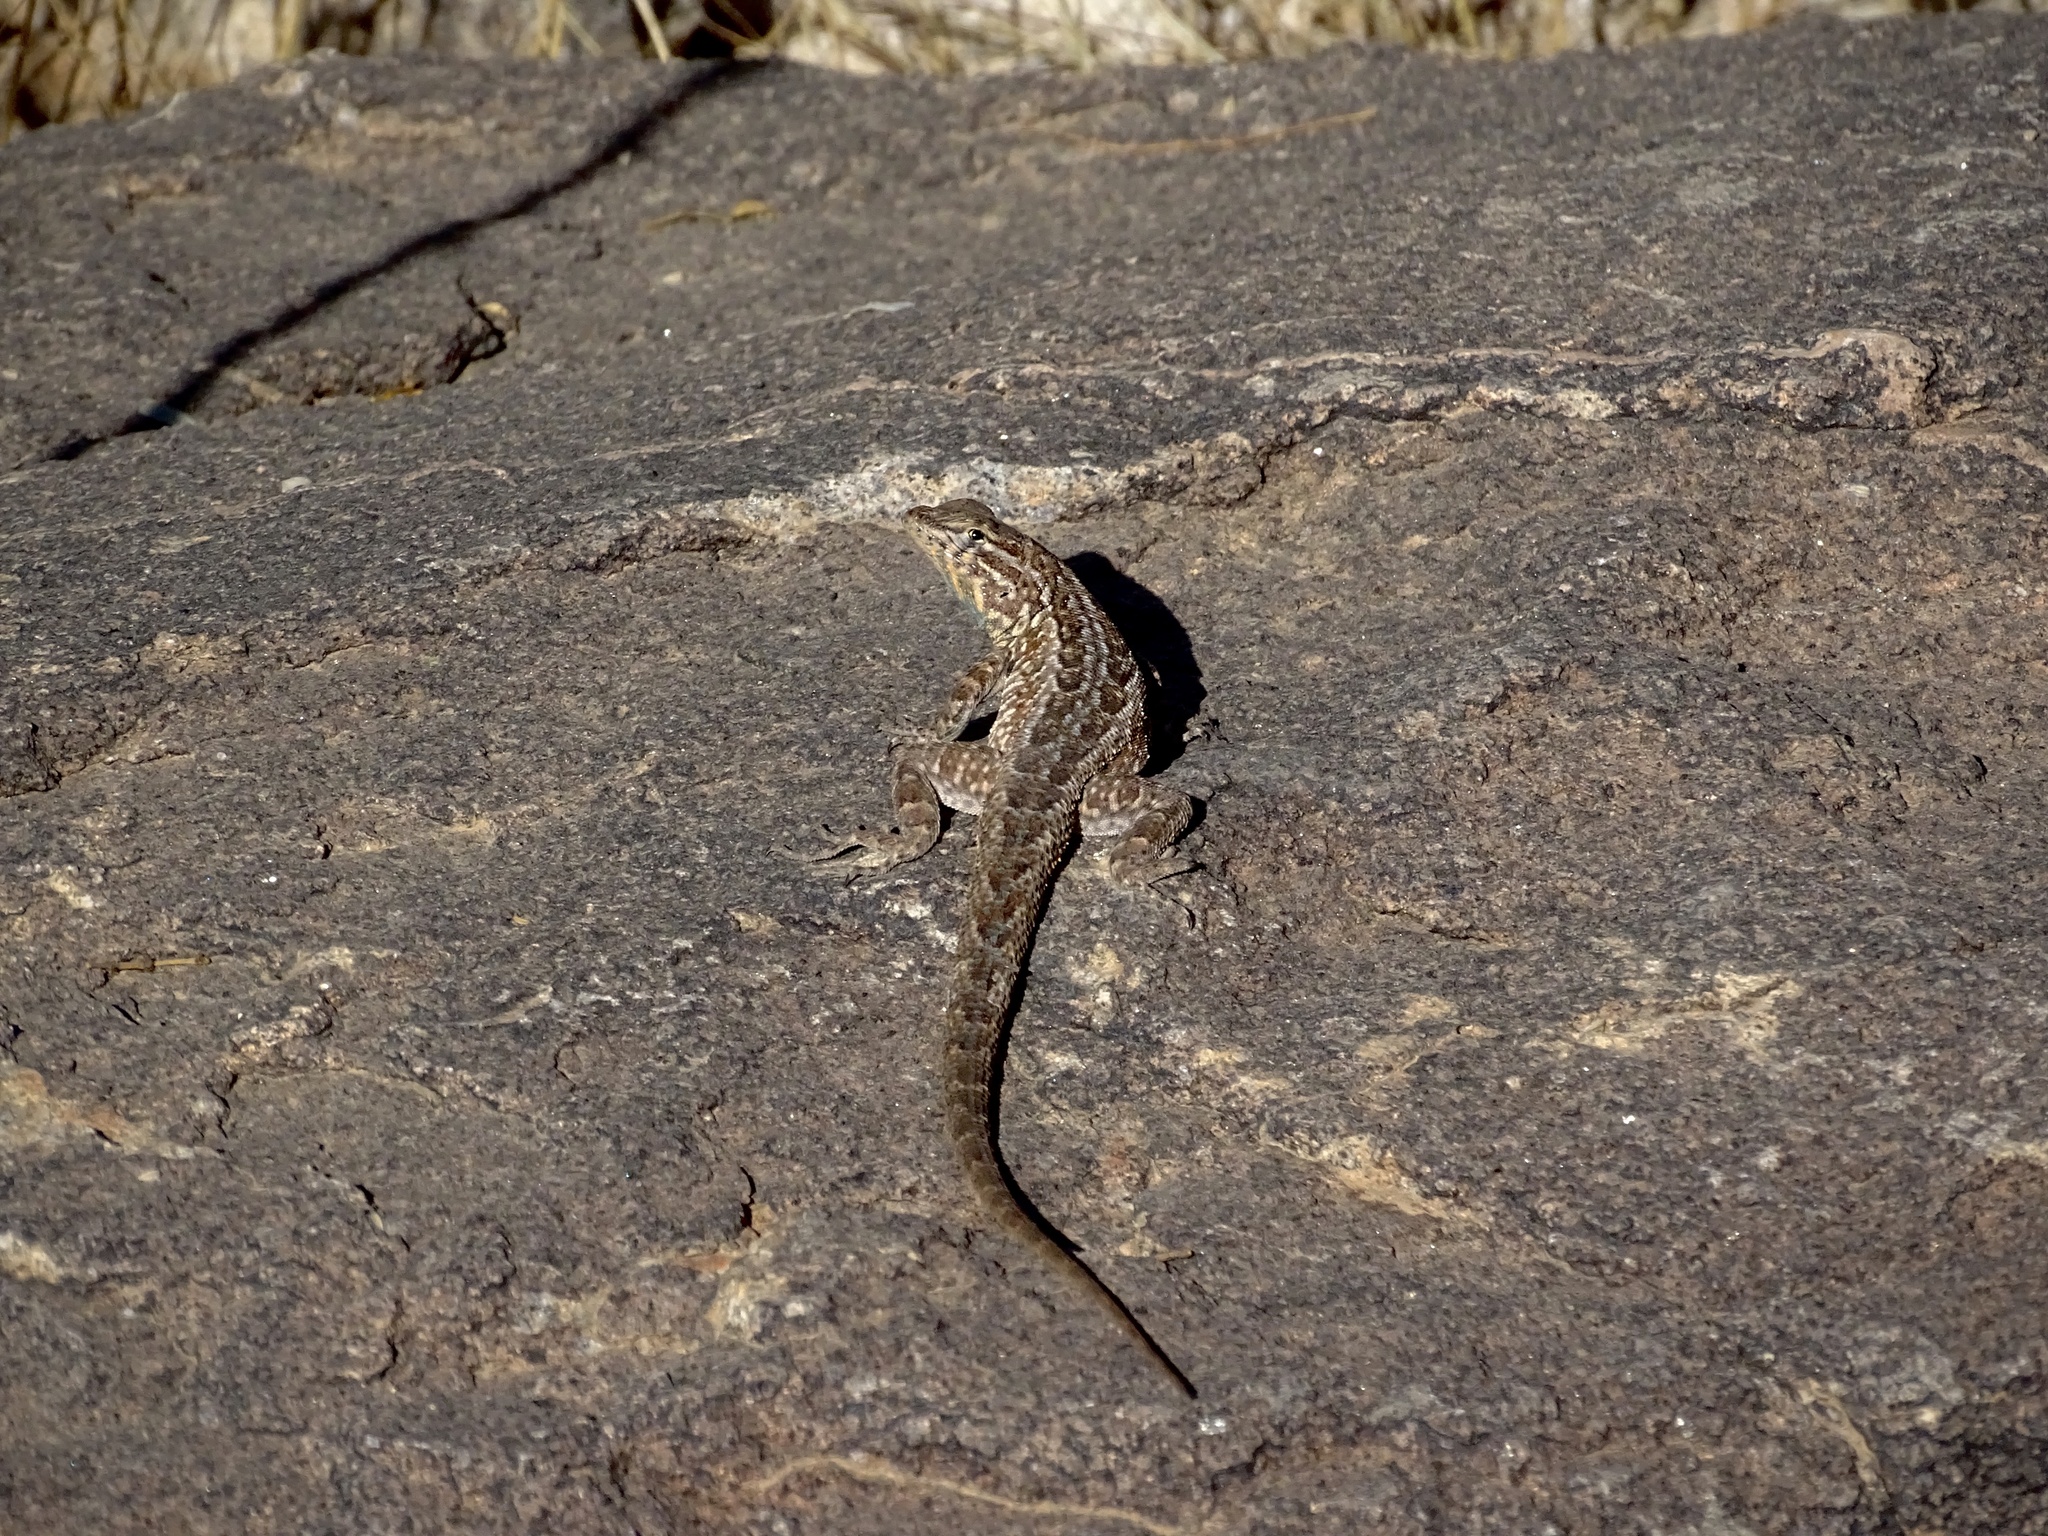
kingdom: Animalia
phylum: Chordata
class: Squamata
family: Phrynosomatidae
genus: Uta
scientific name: Uta stansburiana
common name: Side-blotched lizard
